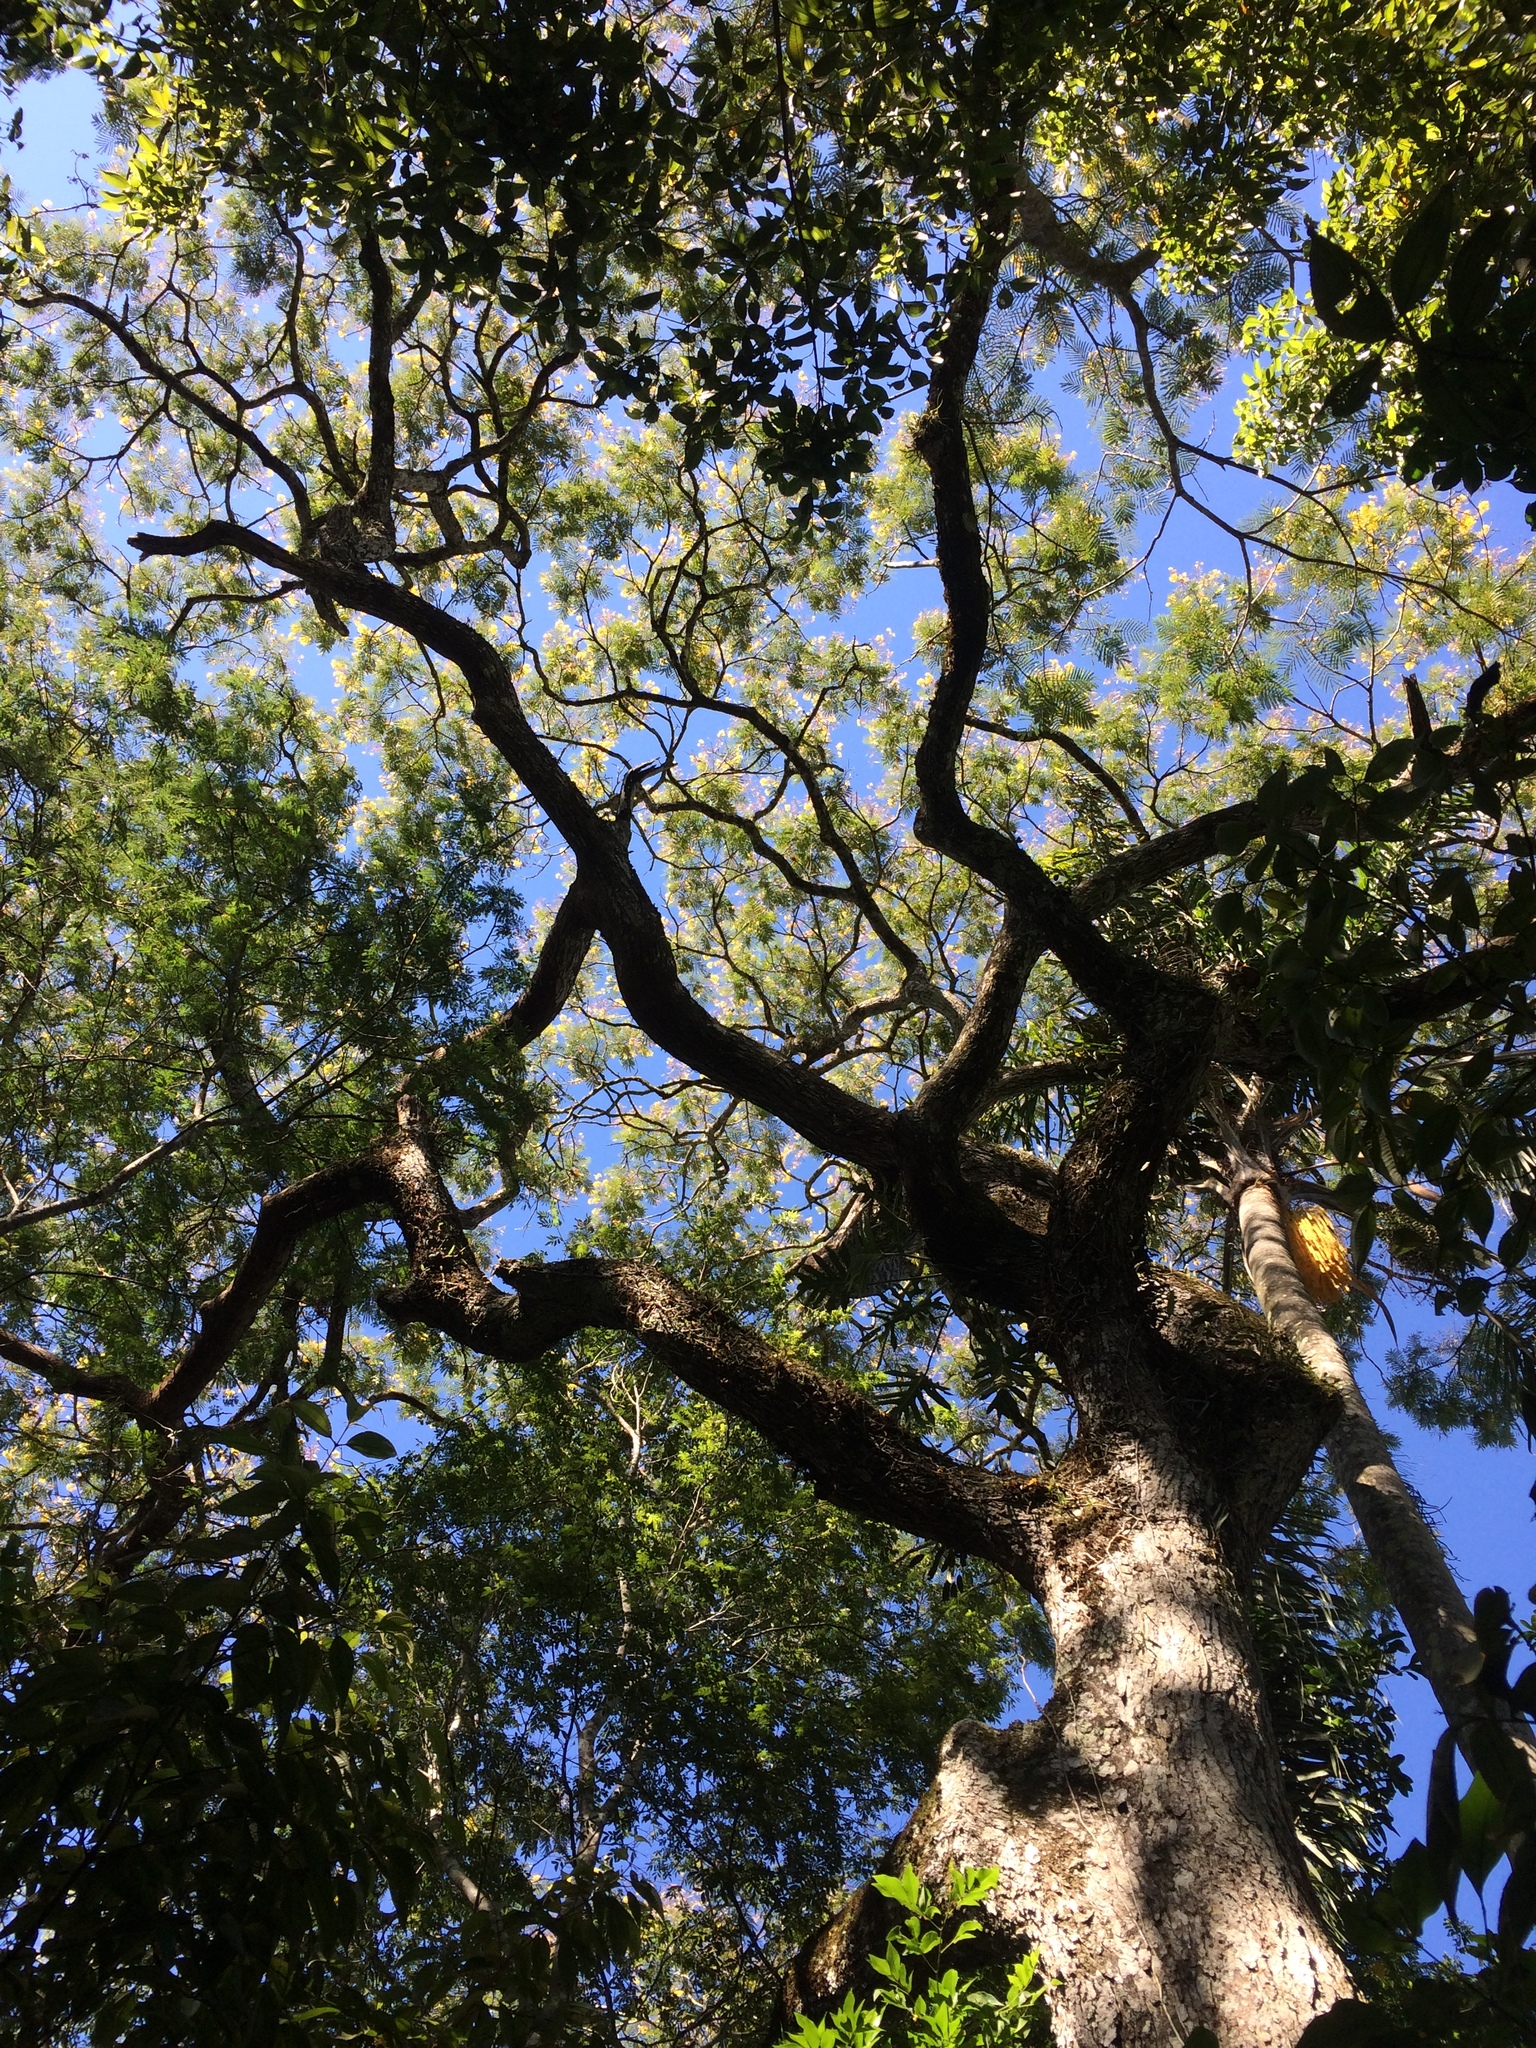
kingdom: Plantae
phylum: Tracheophyta
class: Magnoliopsida
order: Fabales
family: Fabaceae
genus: Peltophorum
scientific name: Peltophorum dubium
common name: Horsebush
